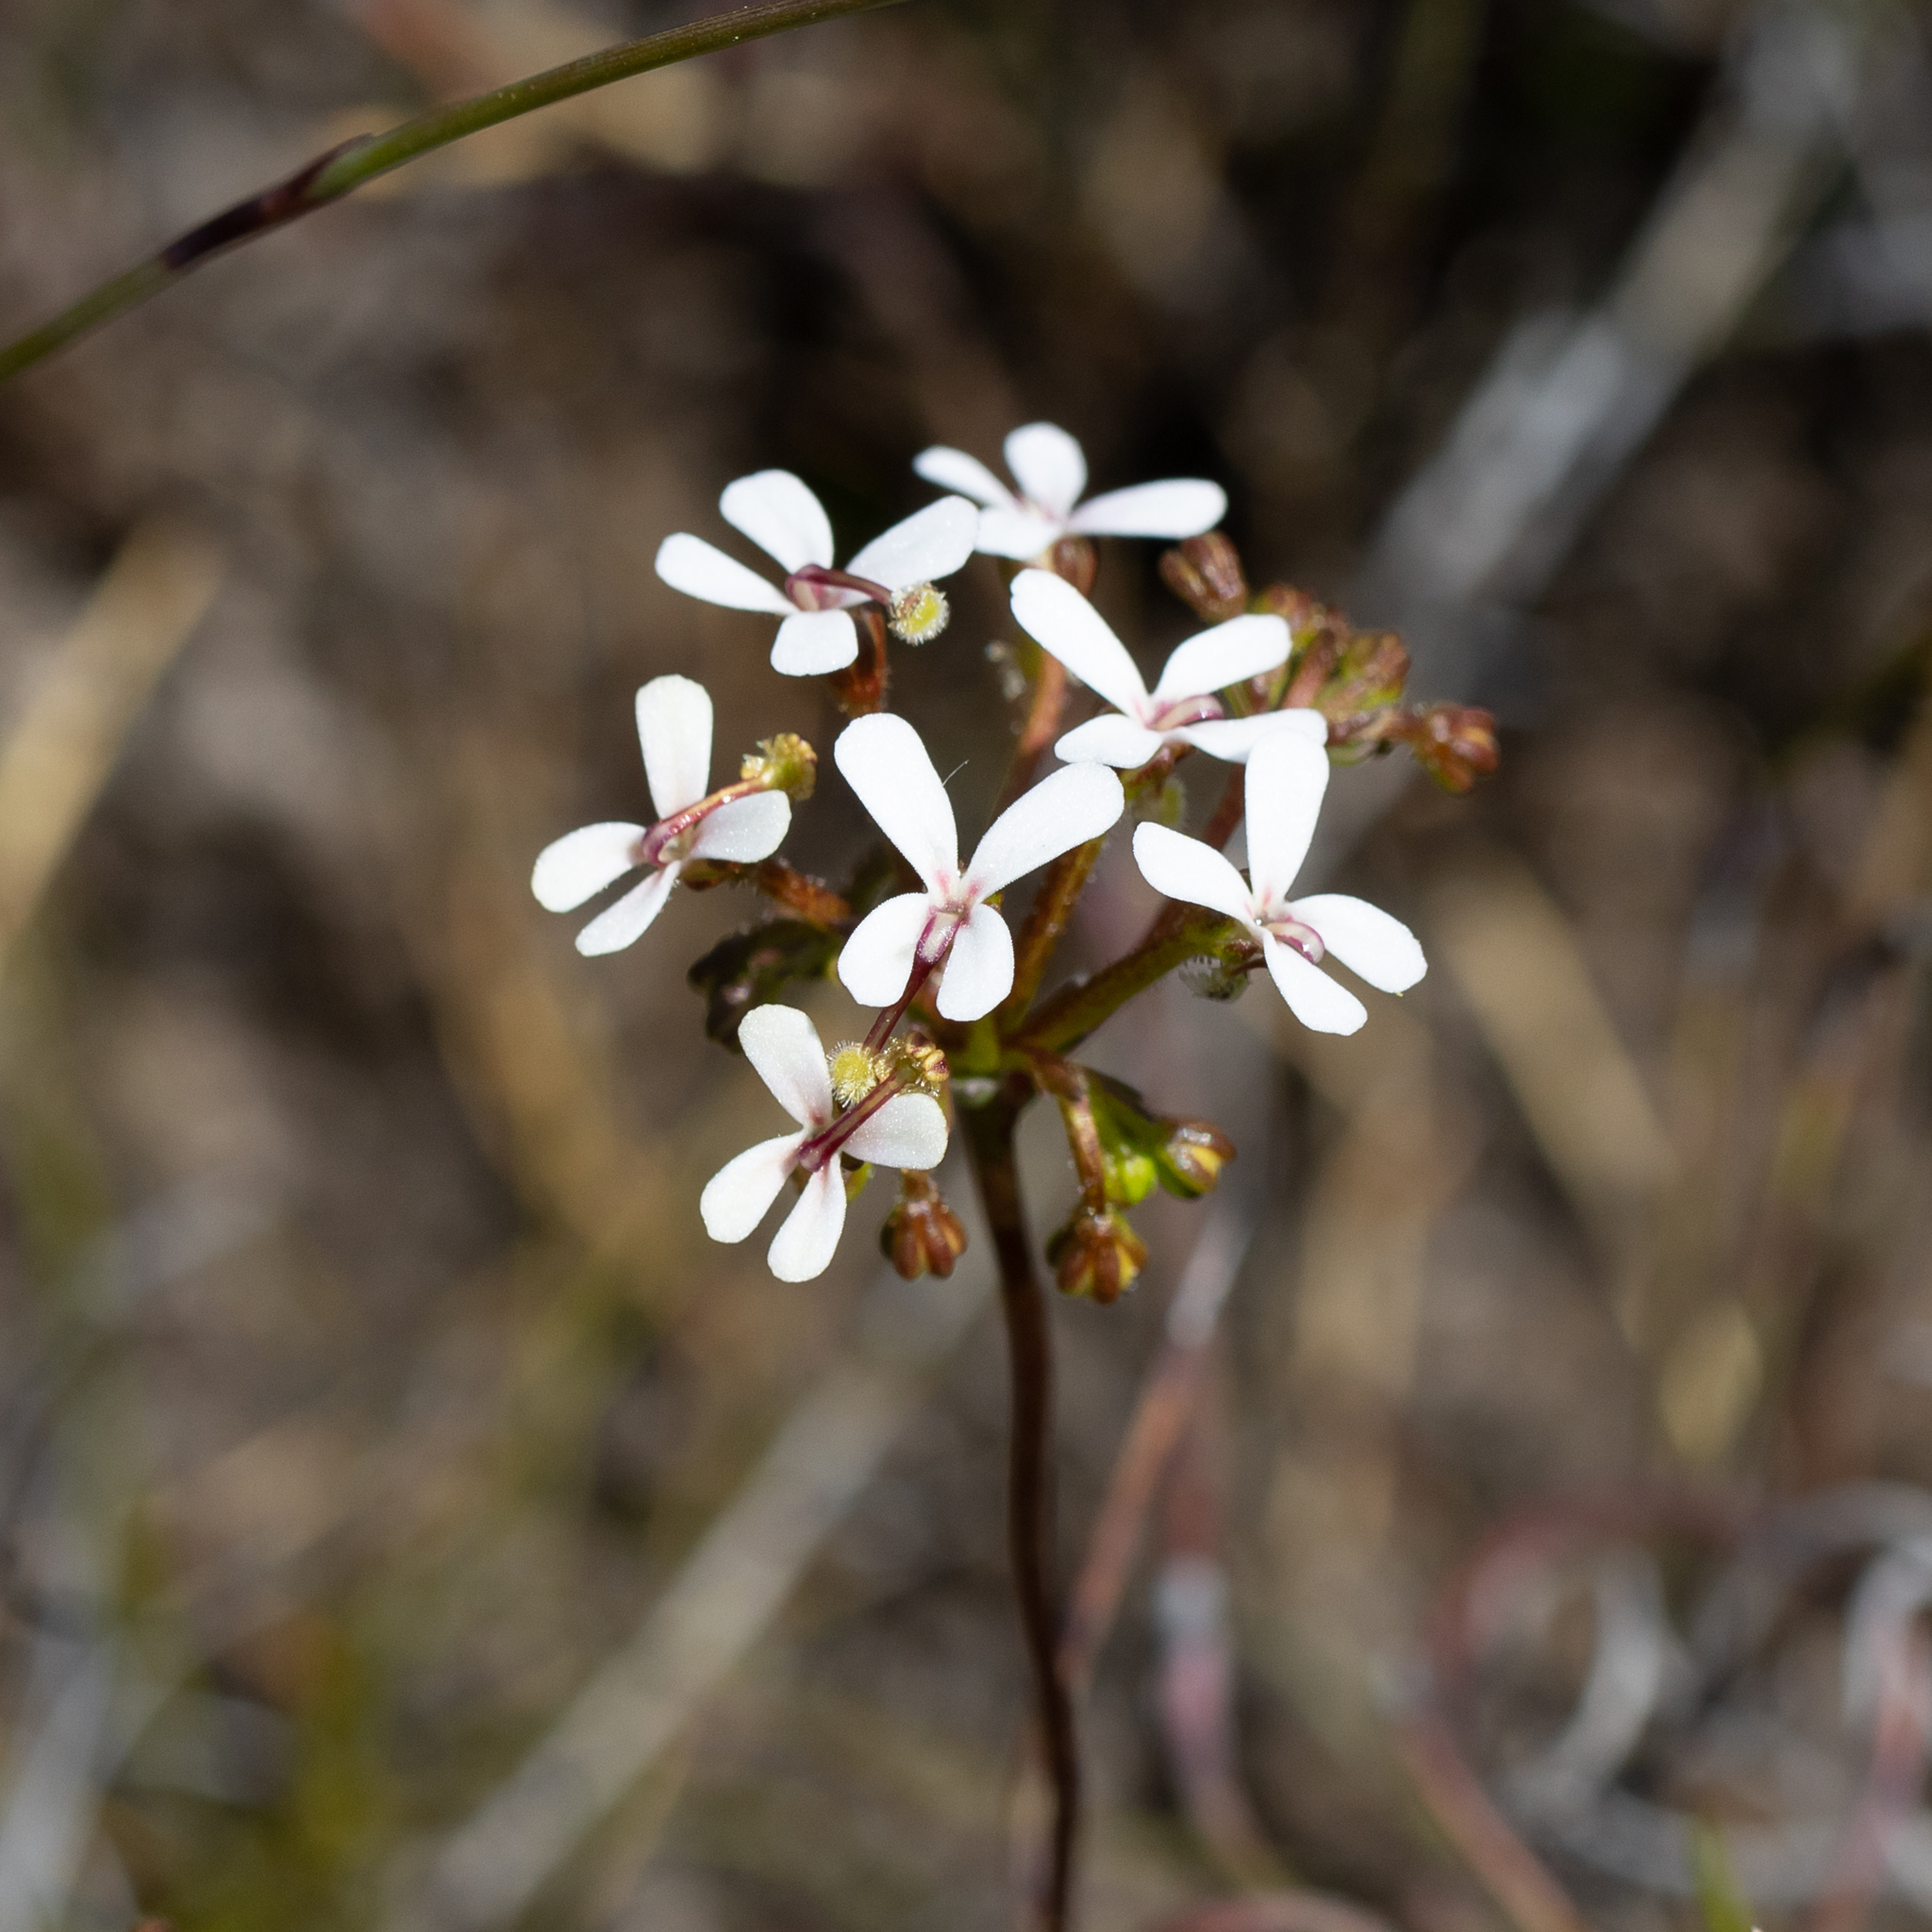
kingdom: Plantae
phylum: Tracheophyta
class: Magnoliopsida
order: Asterales
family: Stylidiaceae
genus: Stylidium
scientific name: Stylidium corymbosum
